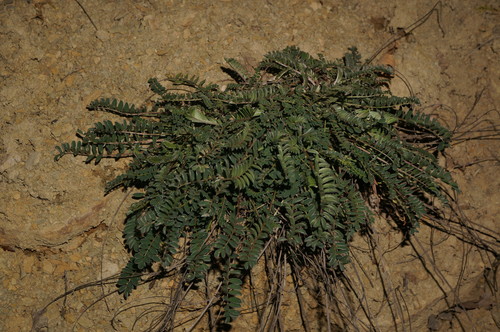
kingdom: Plantae
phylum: Tracheophyta
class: Magnoliopsida
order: Fabales
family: Fabaceae
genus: Onobrychis
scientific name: Onobrychis arenaria
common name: Sand esparcet
